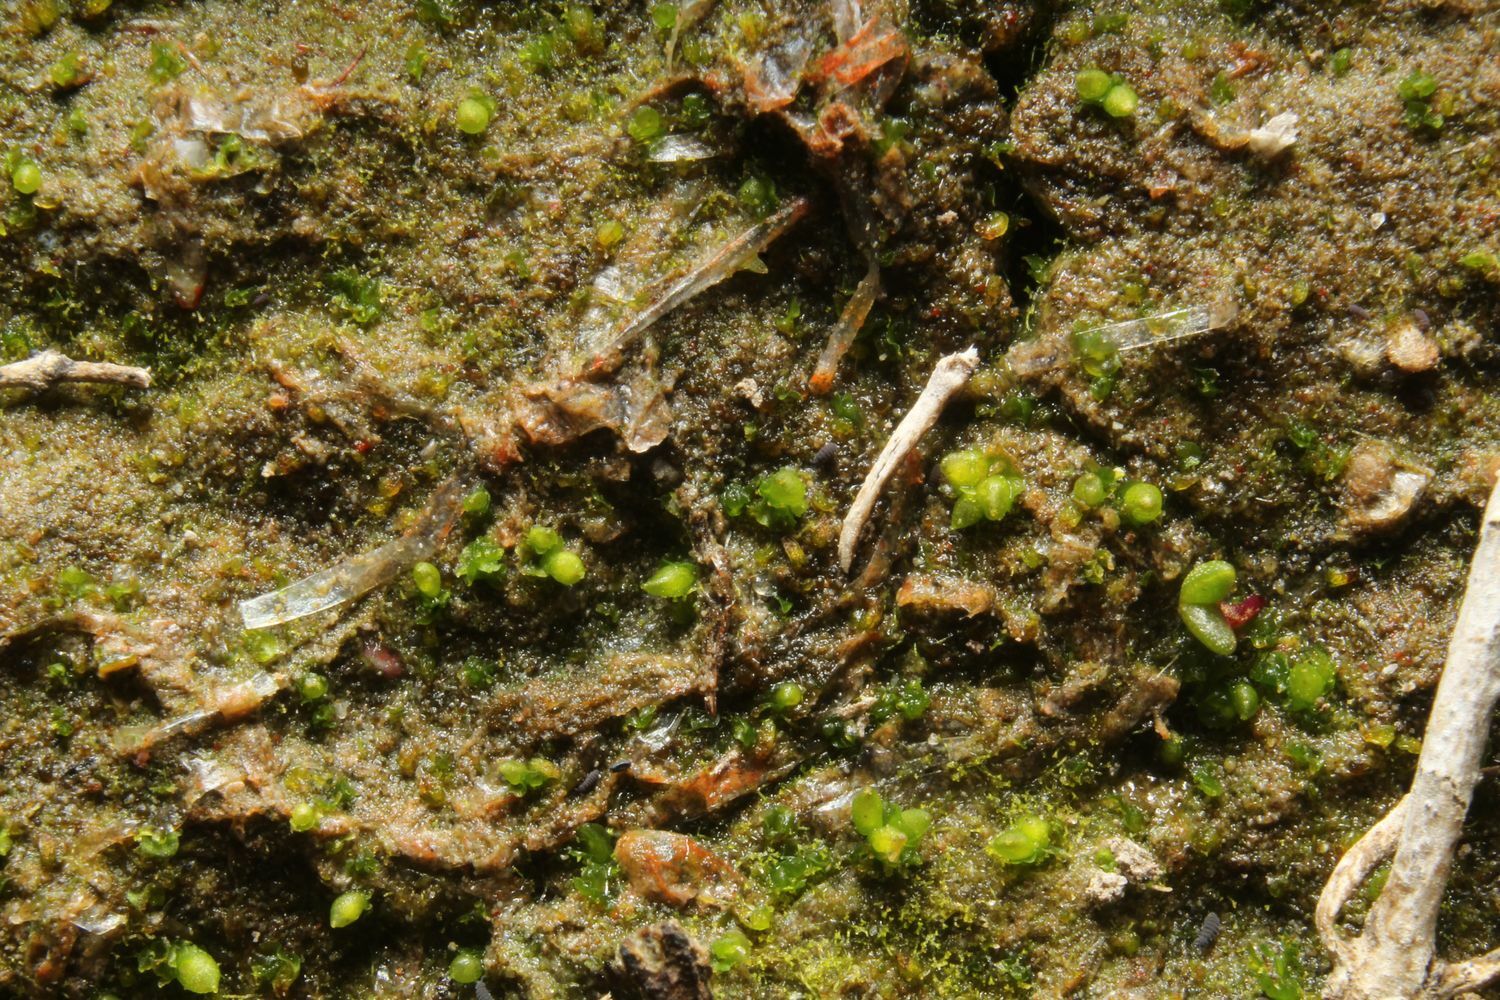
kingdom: Plantae
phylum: Marchantiophyta
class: Marchantiopsida
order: Sphaerocarpales
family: Riellaceae
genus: Austroriella
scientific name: Austroriella salta
